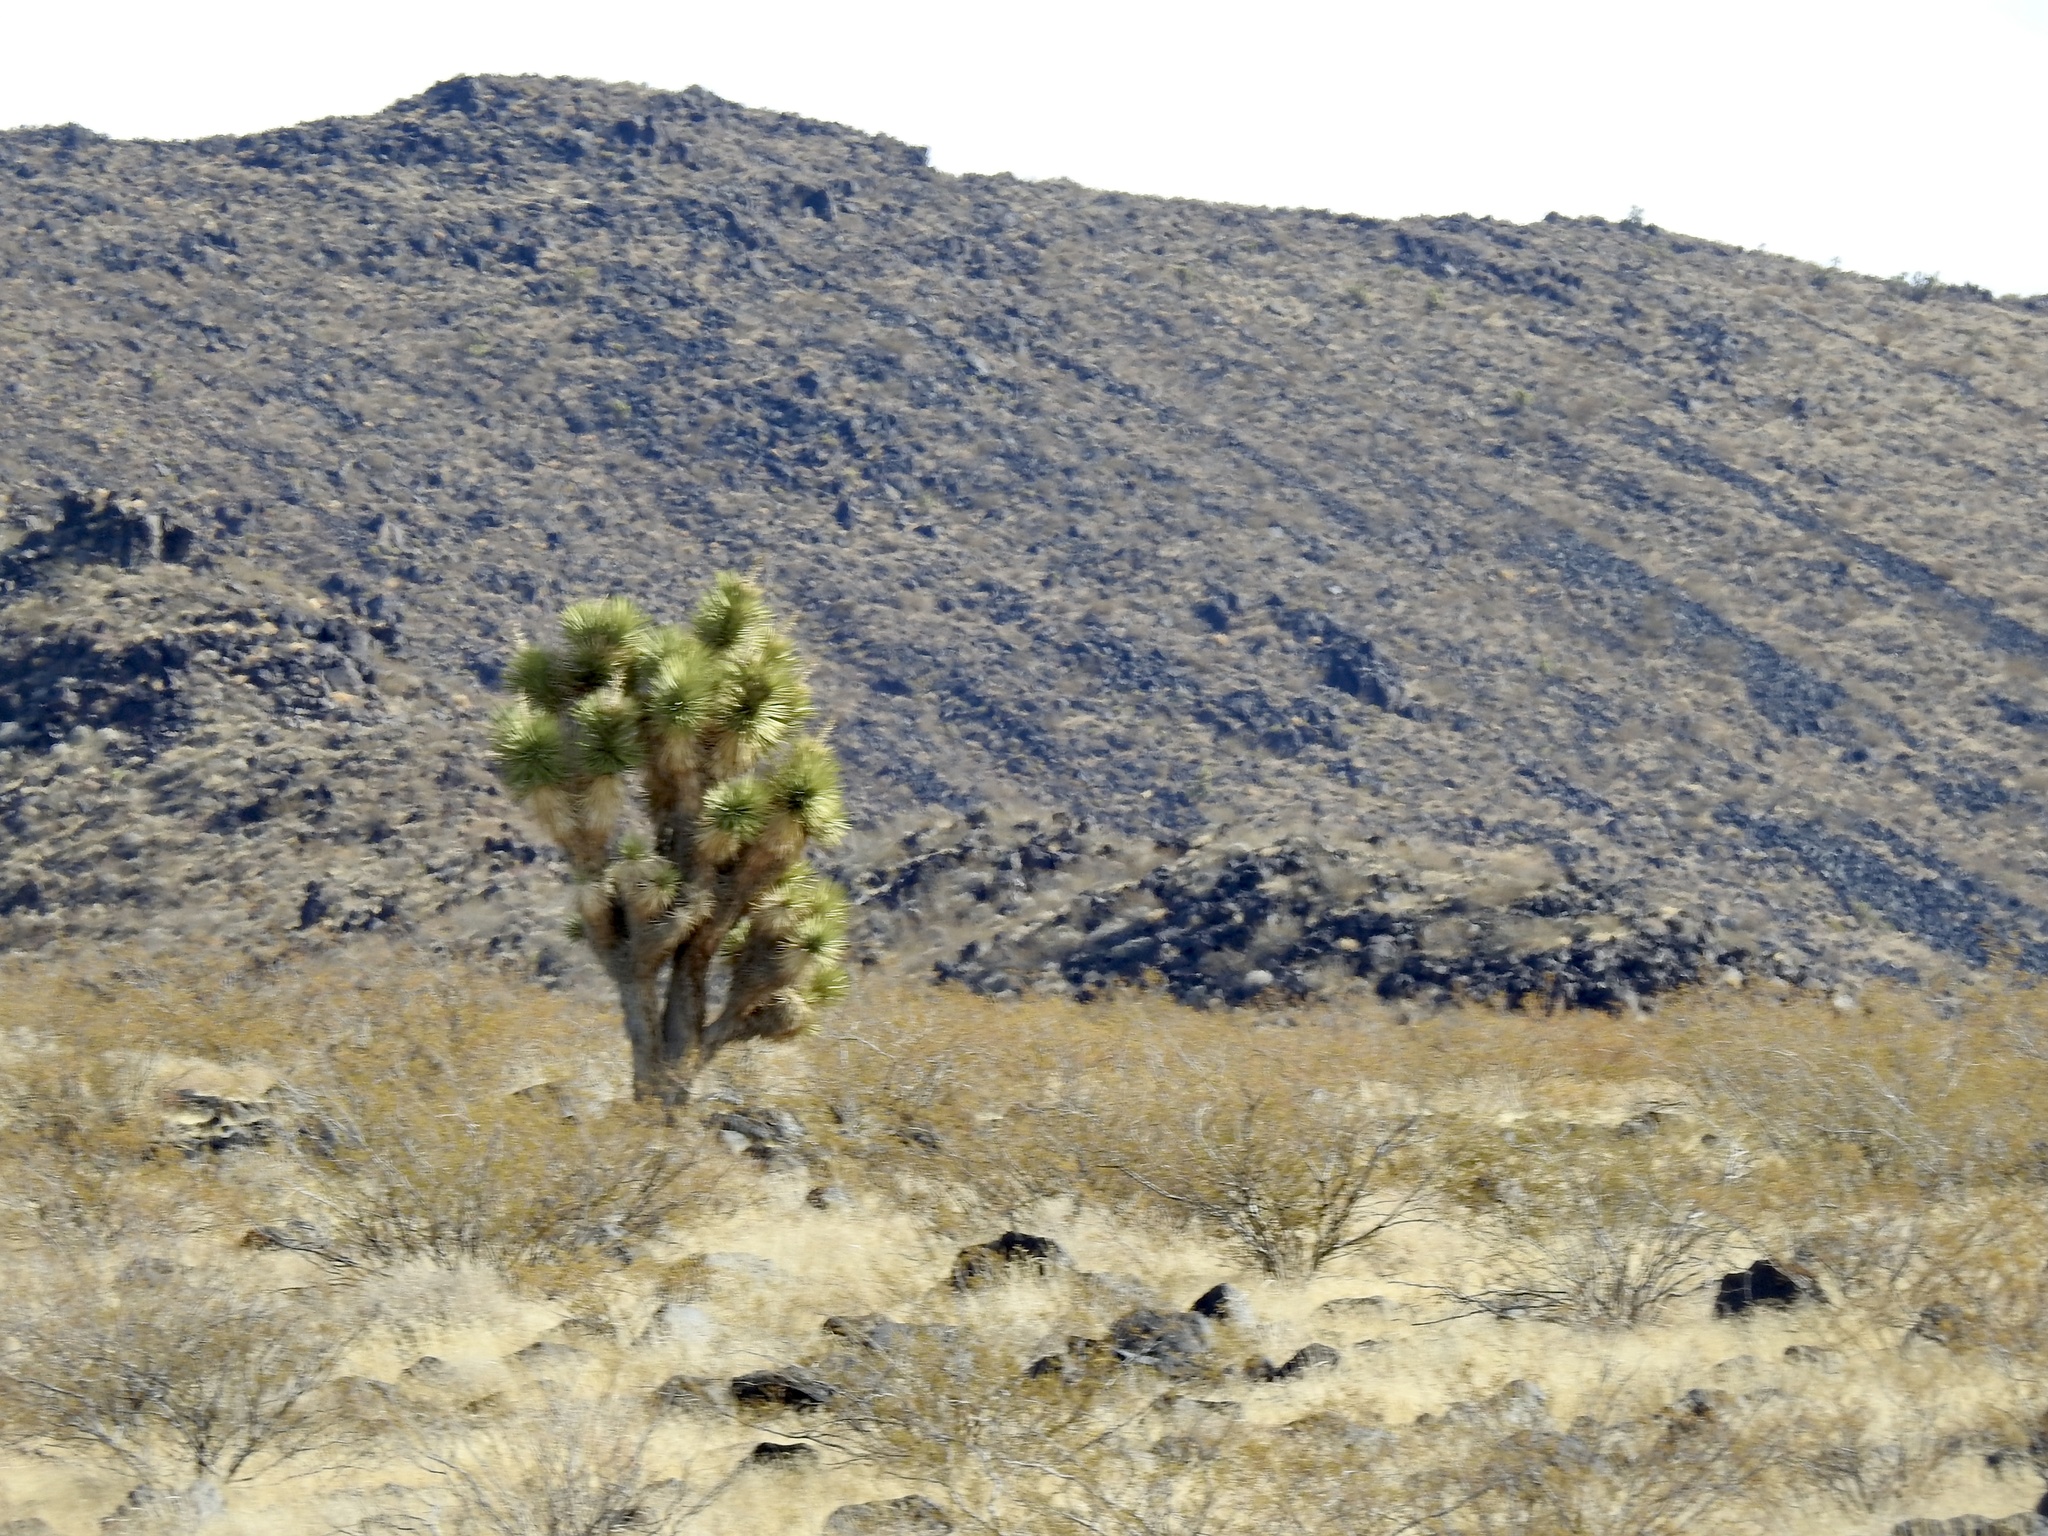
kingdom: Plantae
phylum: Tracheophyta
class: Liliopsida
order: Asparagales
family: Asparagaceae
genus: Yucca
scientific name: Yucca brevifolia
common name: Joshua tree
